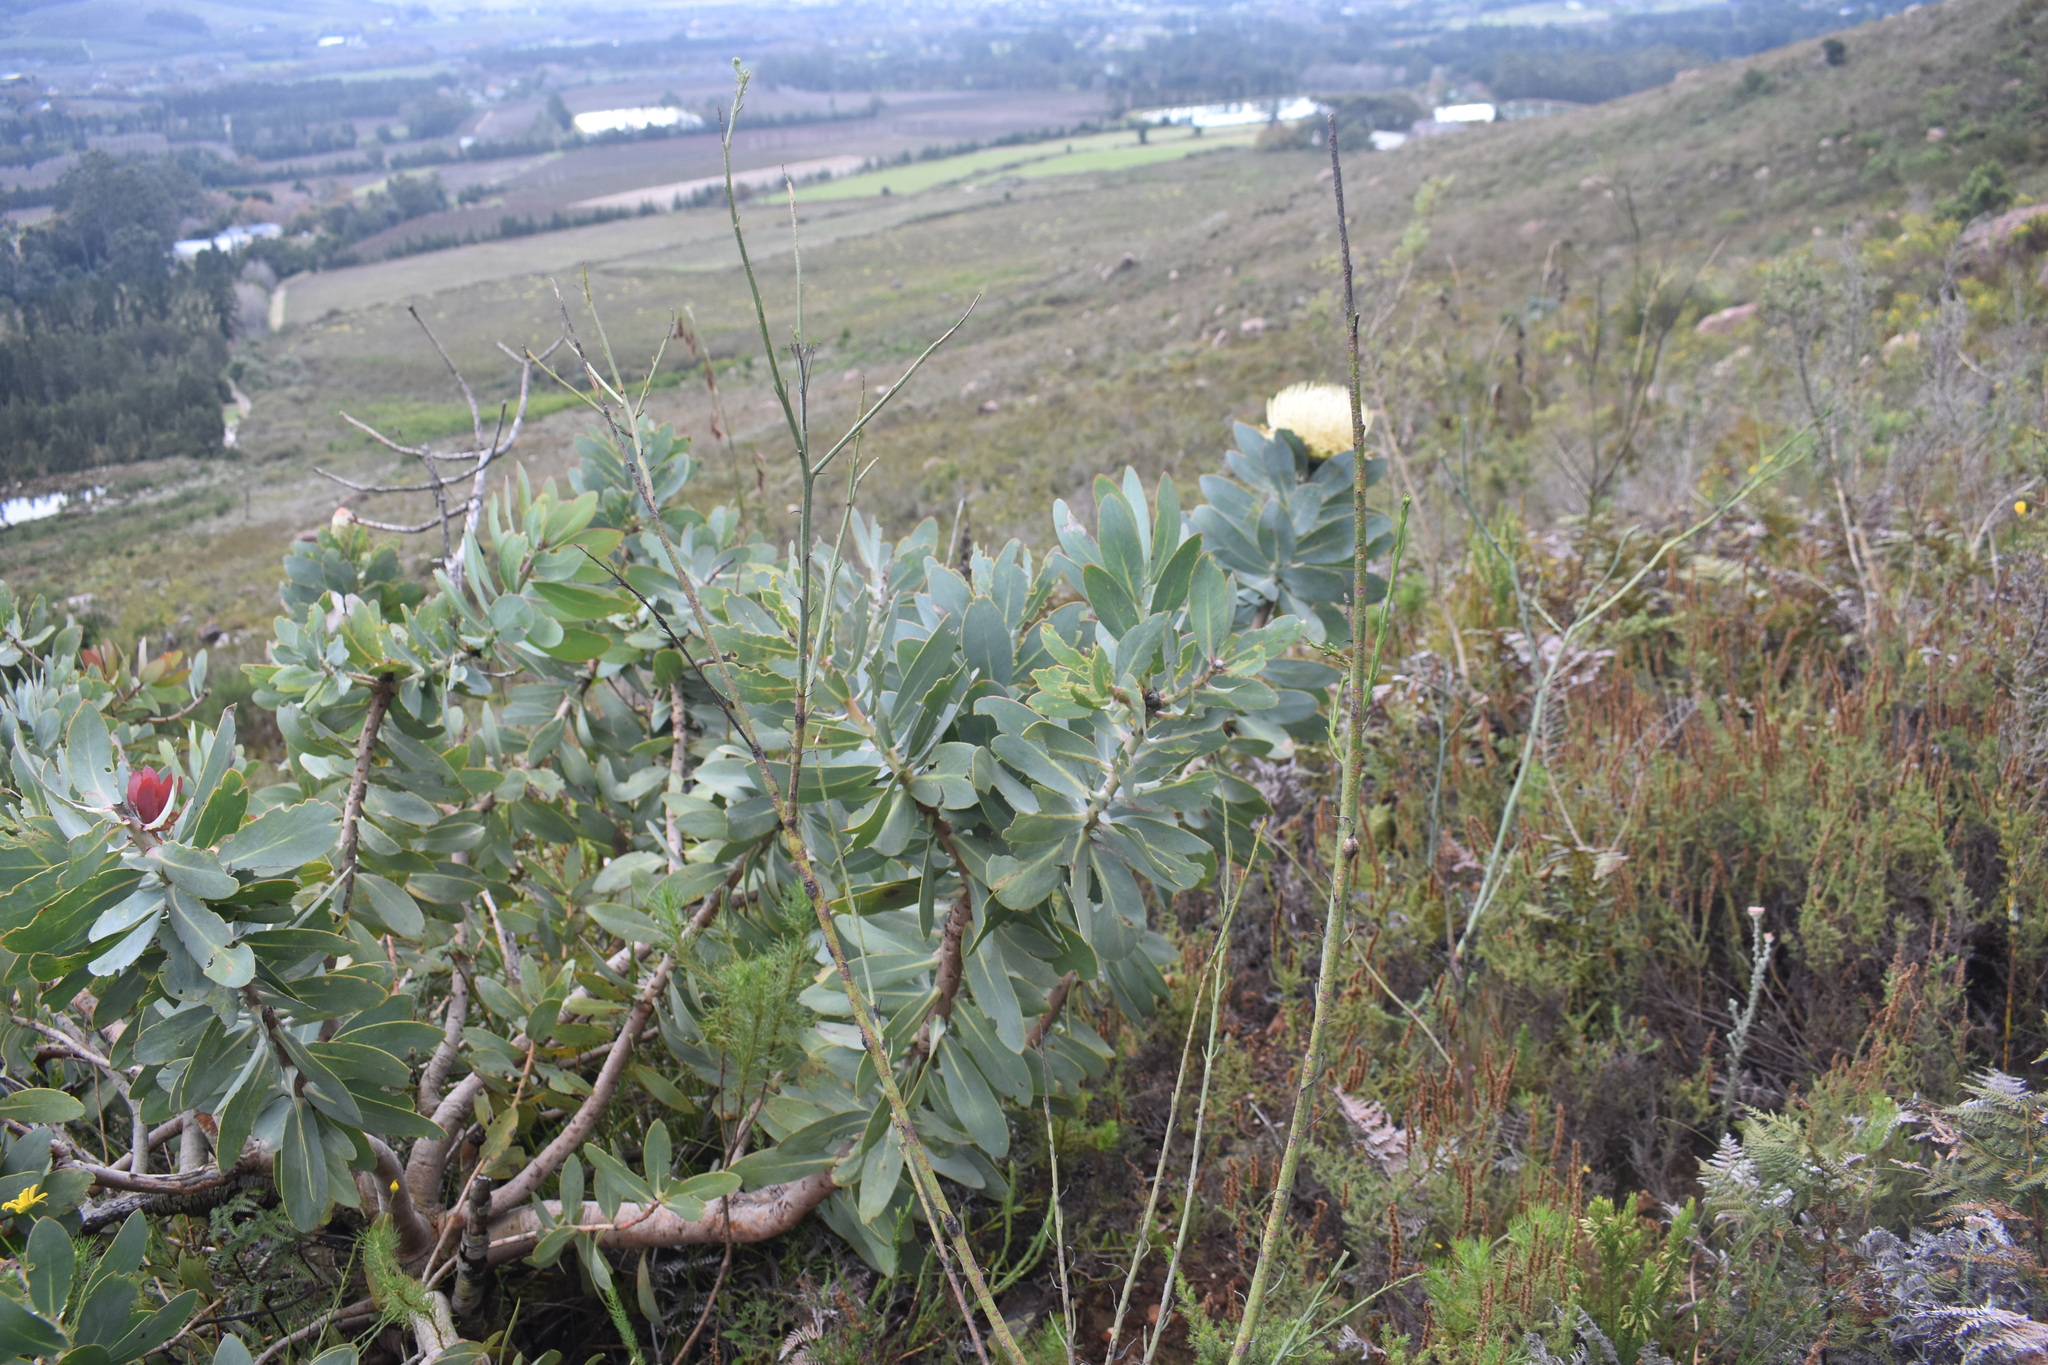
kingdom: Plantae
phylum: Tracheophyta
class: Magnoliopsida
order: Proteales
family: Proteaceae
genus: Protea
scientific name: Protea nitida
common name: Tree protea
